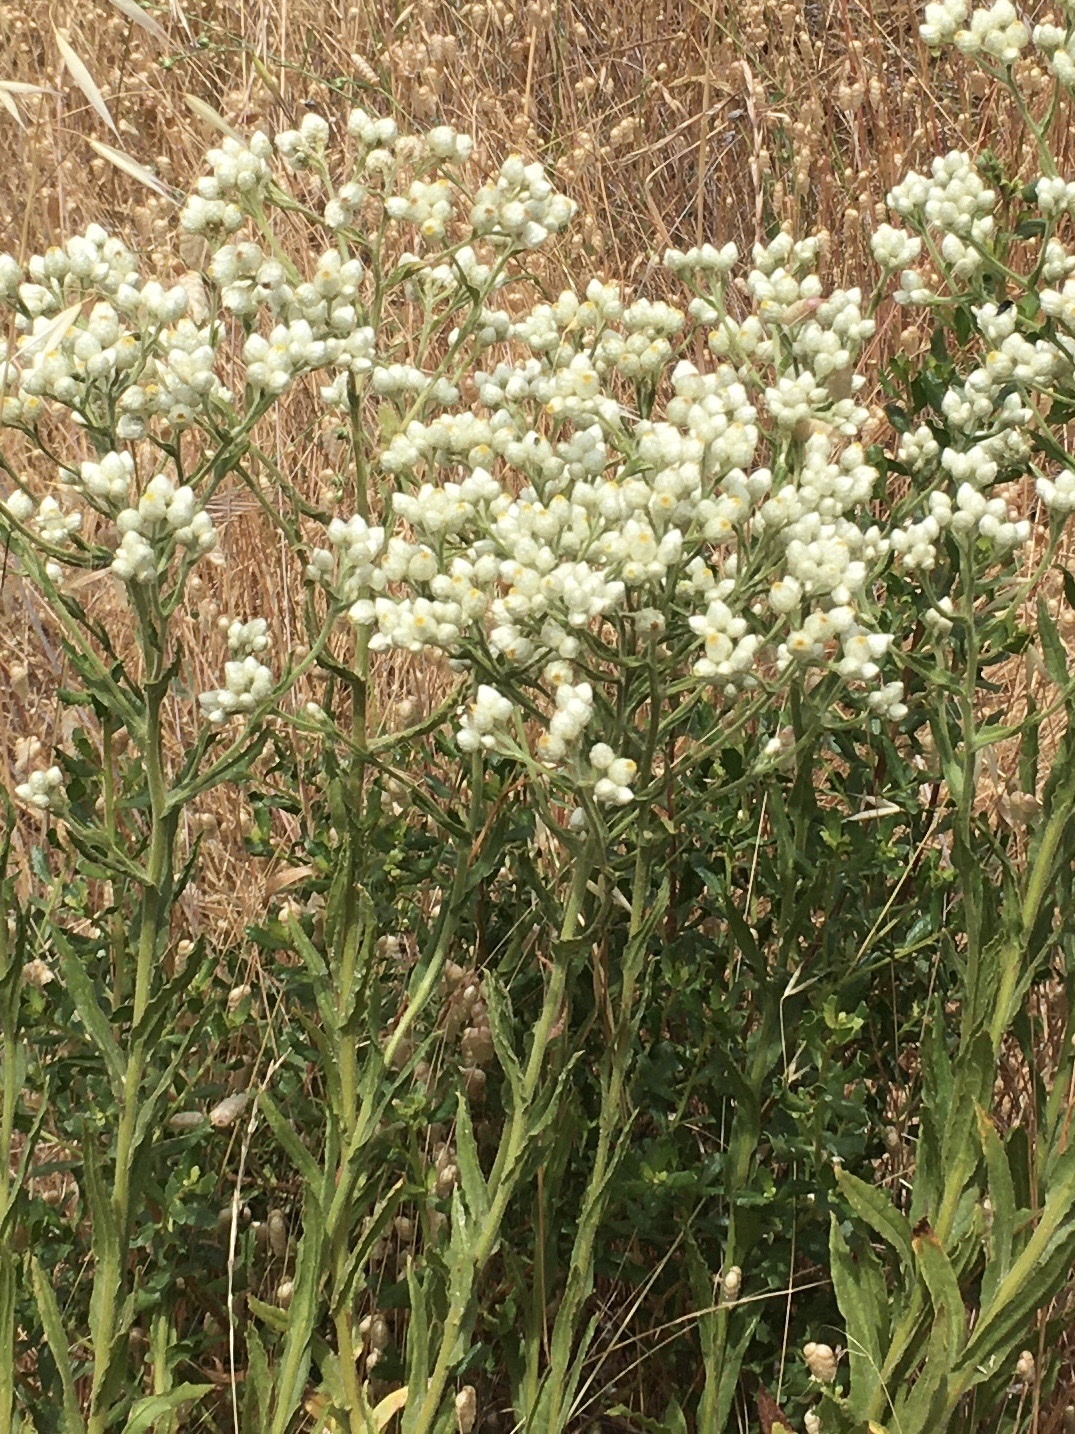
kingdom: Plantae
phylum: Tracheophyta
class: Magnoliopsida
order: Asterales
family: Asteraceae
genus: Pseudognaphalium
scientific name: Pseudognaphalium californicum
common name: California rabbit-tobacco
